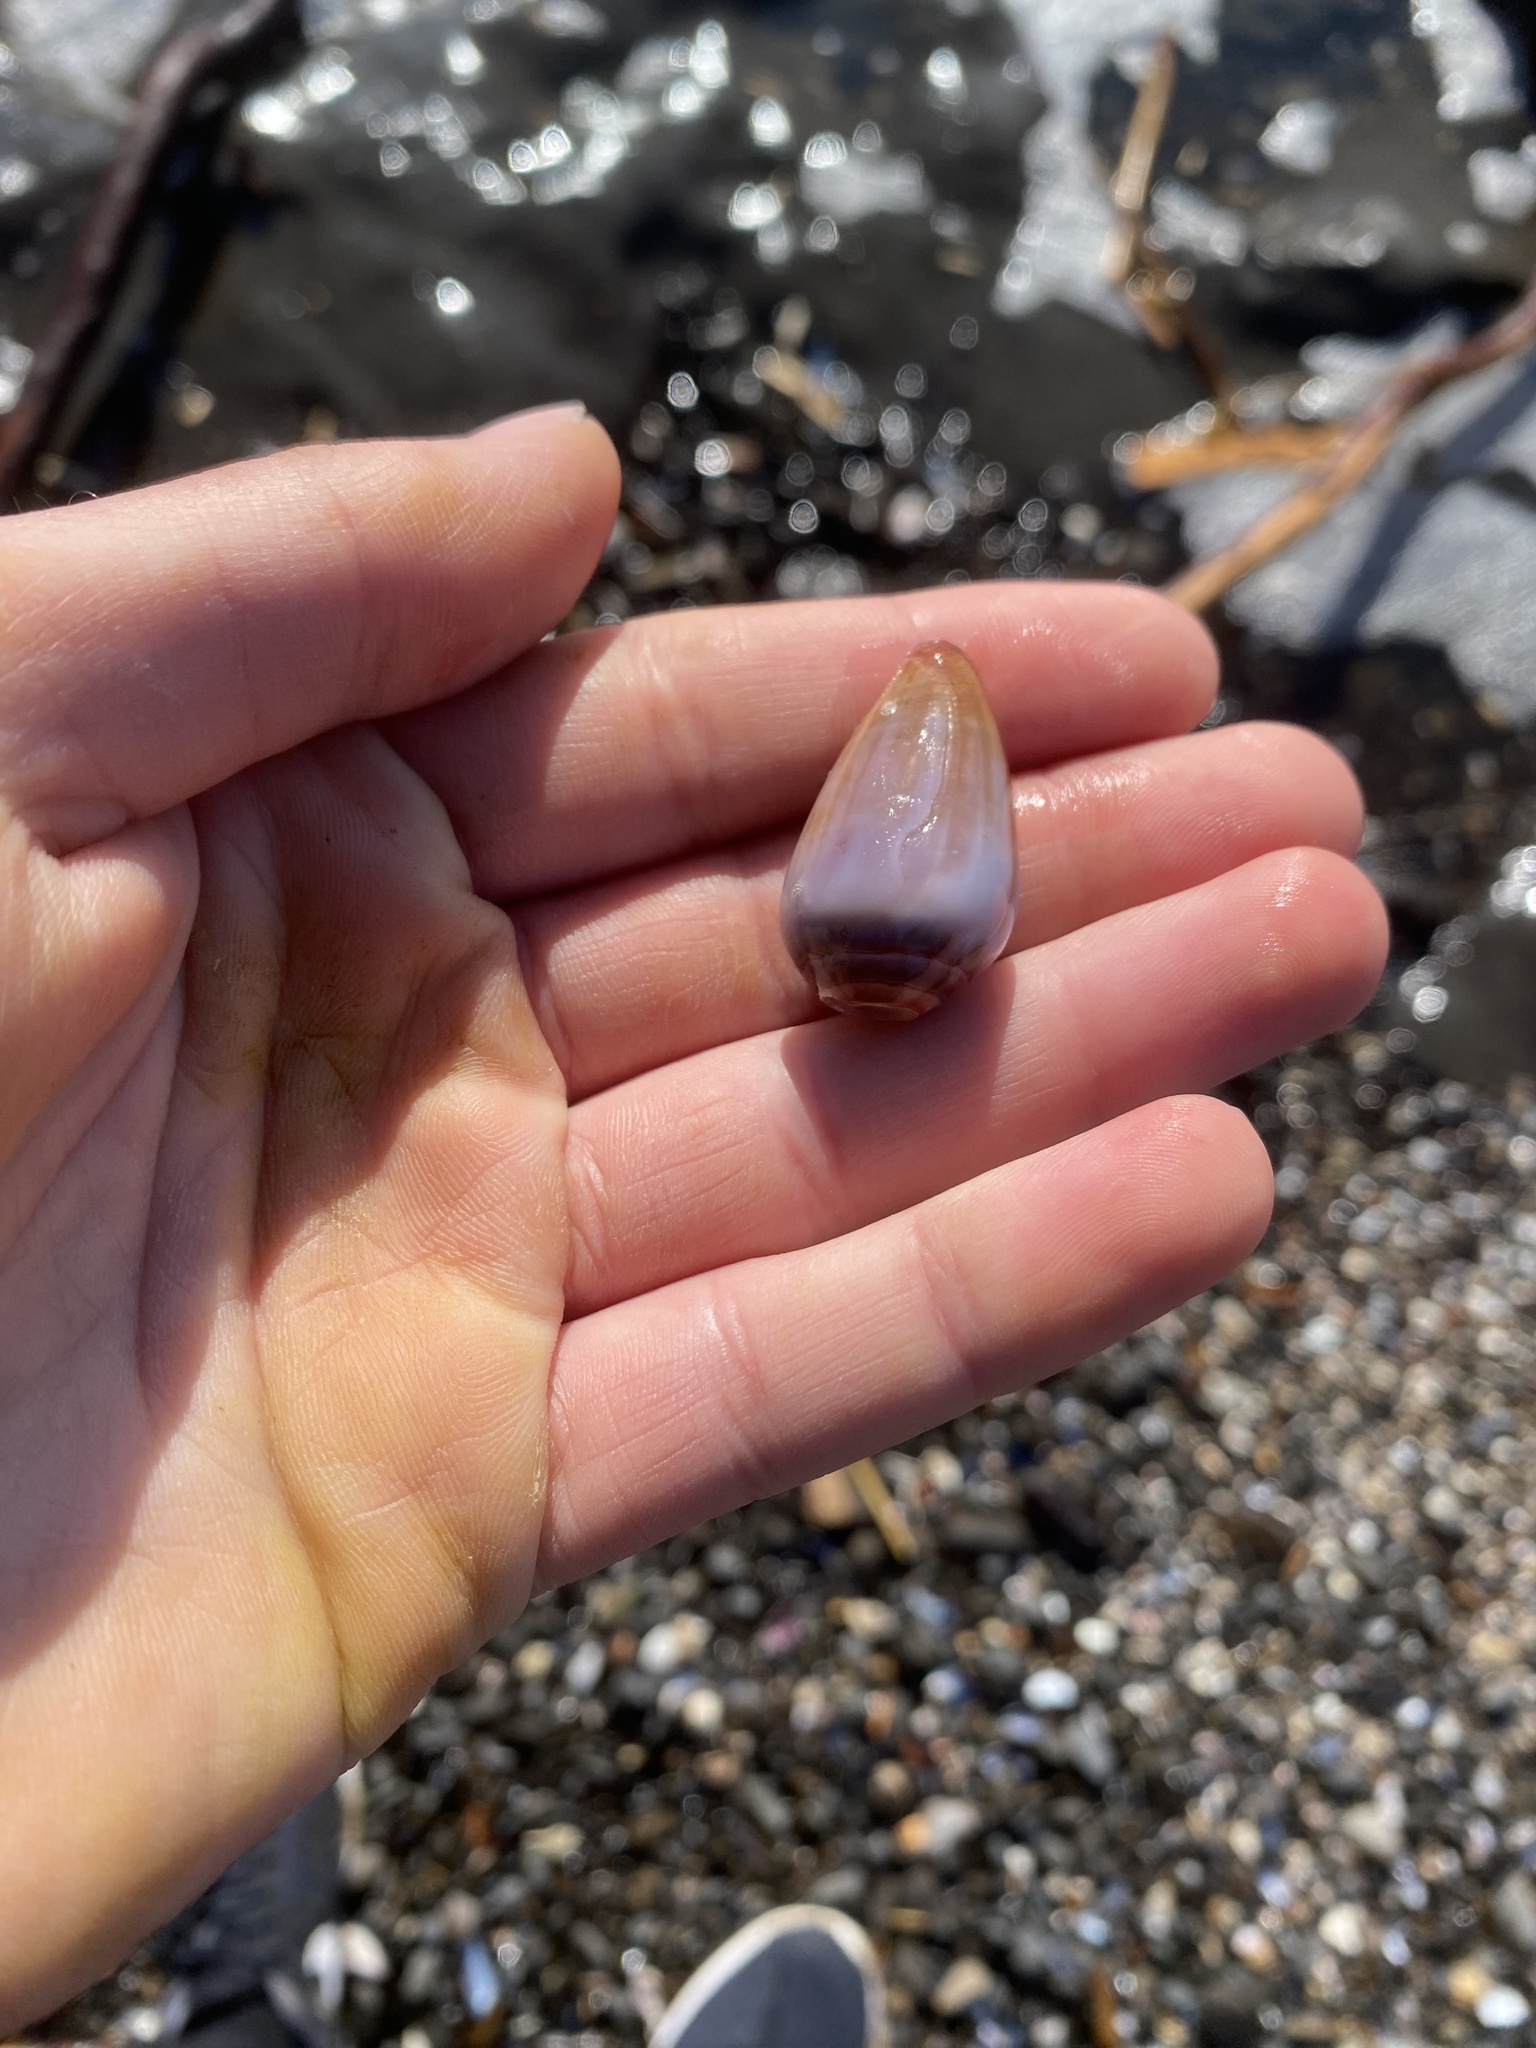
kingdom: Animalia
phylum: Mollusca
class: Gastropoda
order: Neogastropoda
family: Conidae
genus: Californiconus
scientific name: Californiconus californicus
